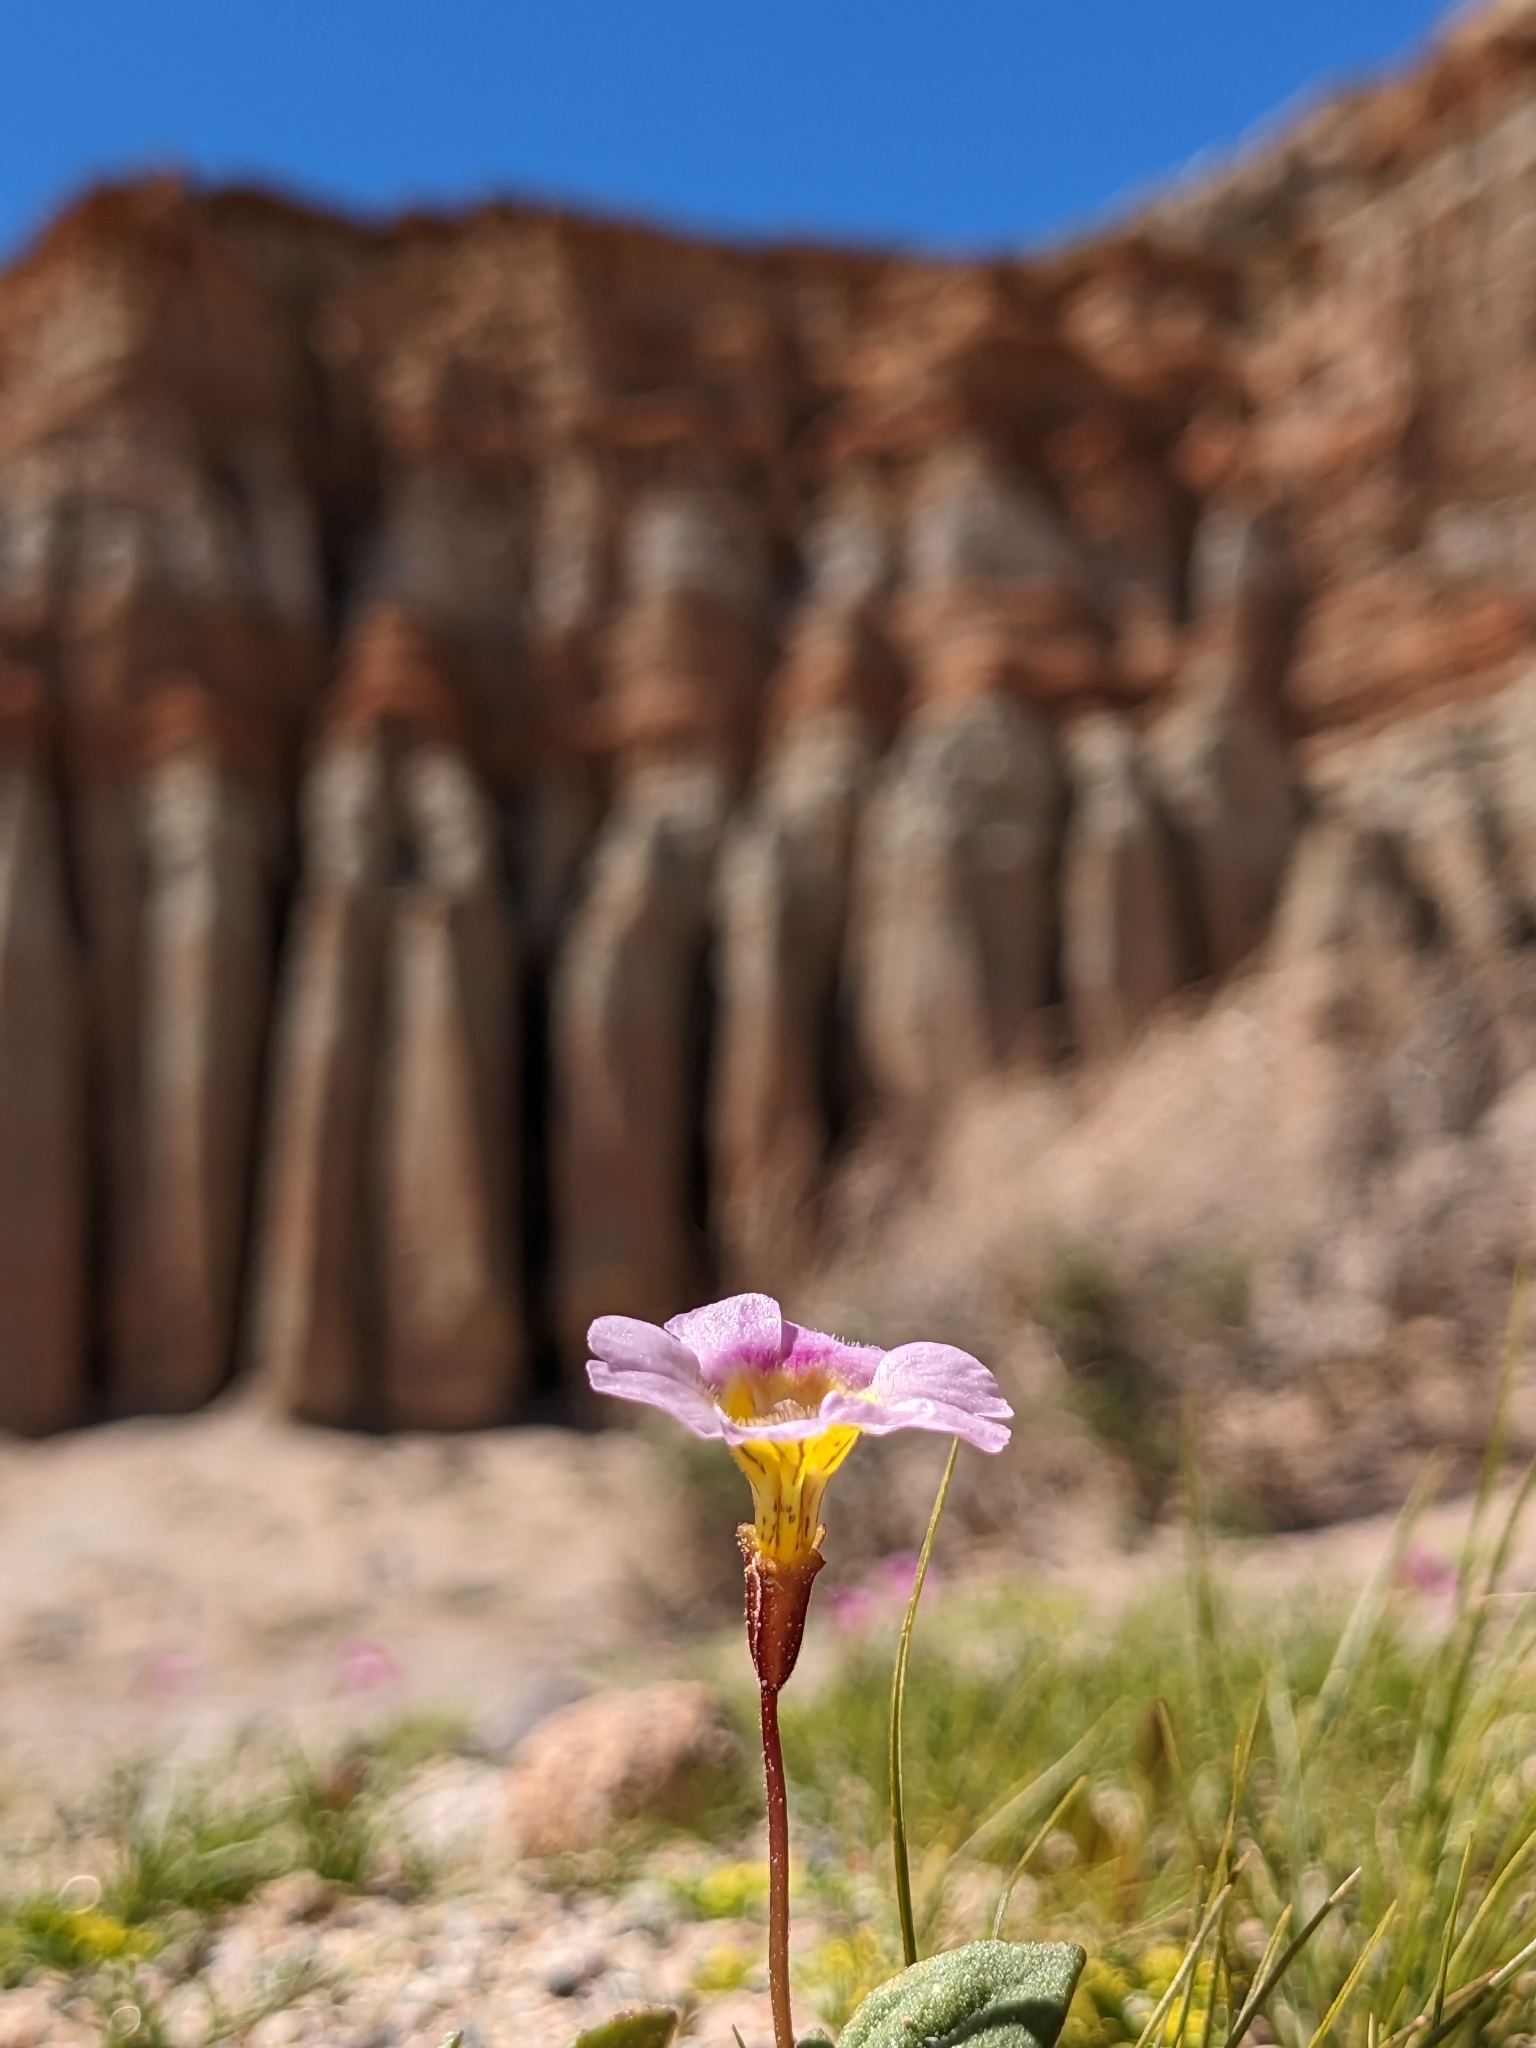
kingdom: Plantae
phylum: Tracheophyta
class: Magnoliopsida
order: Lamiales
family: Phrymaceae
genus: Erythranthe
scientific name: Erythranthe rhodopetra
